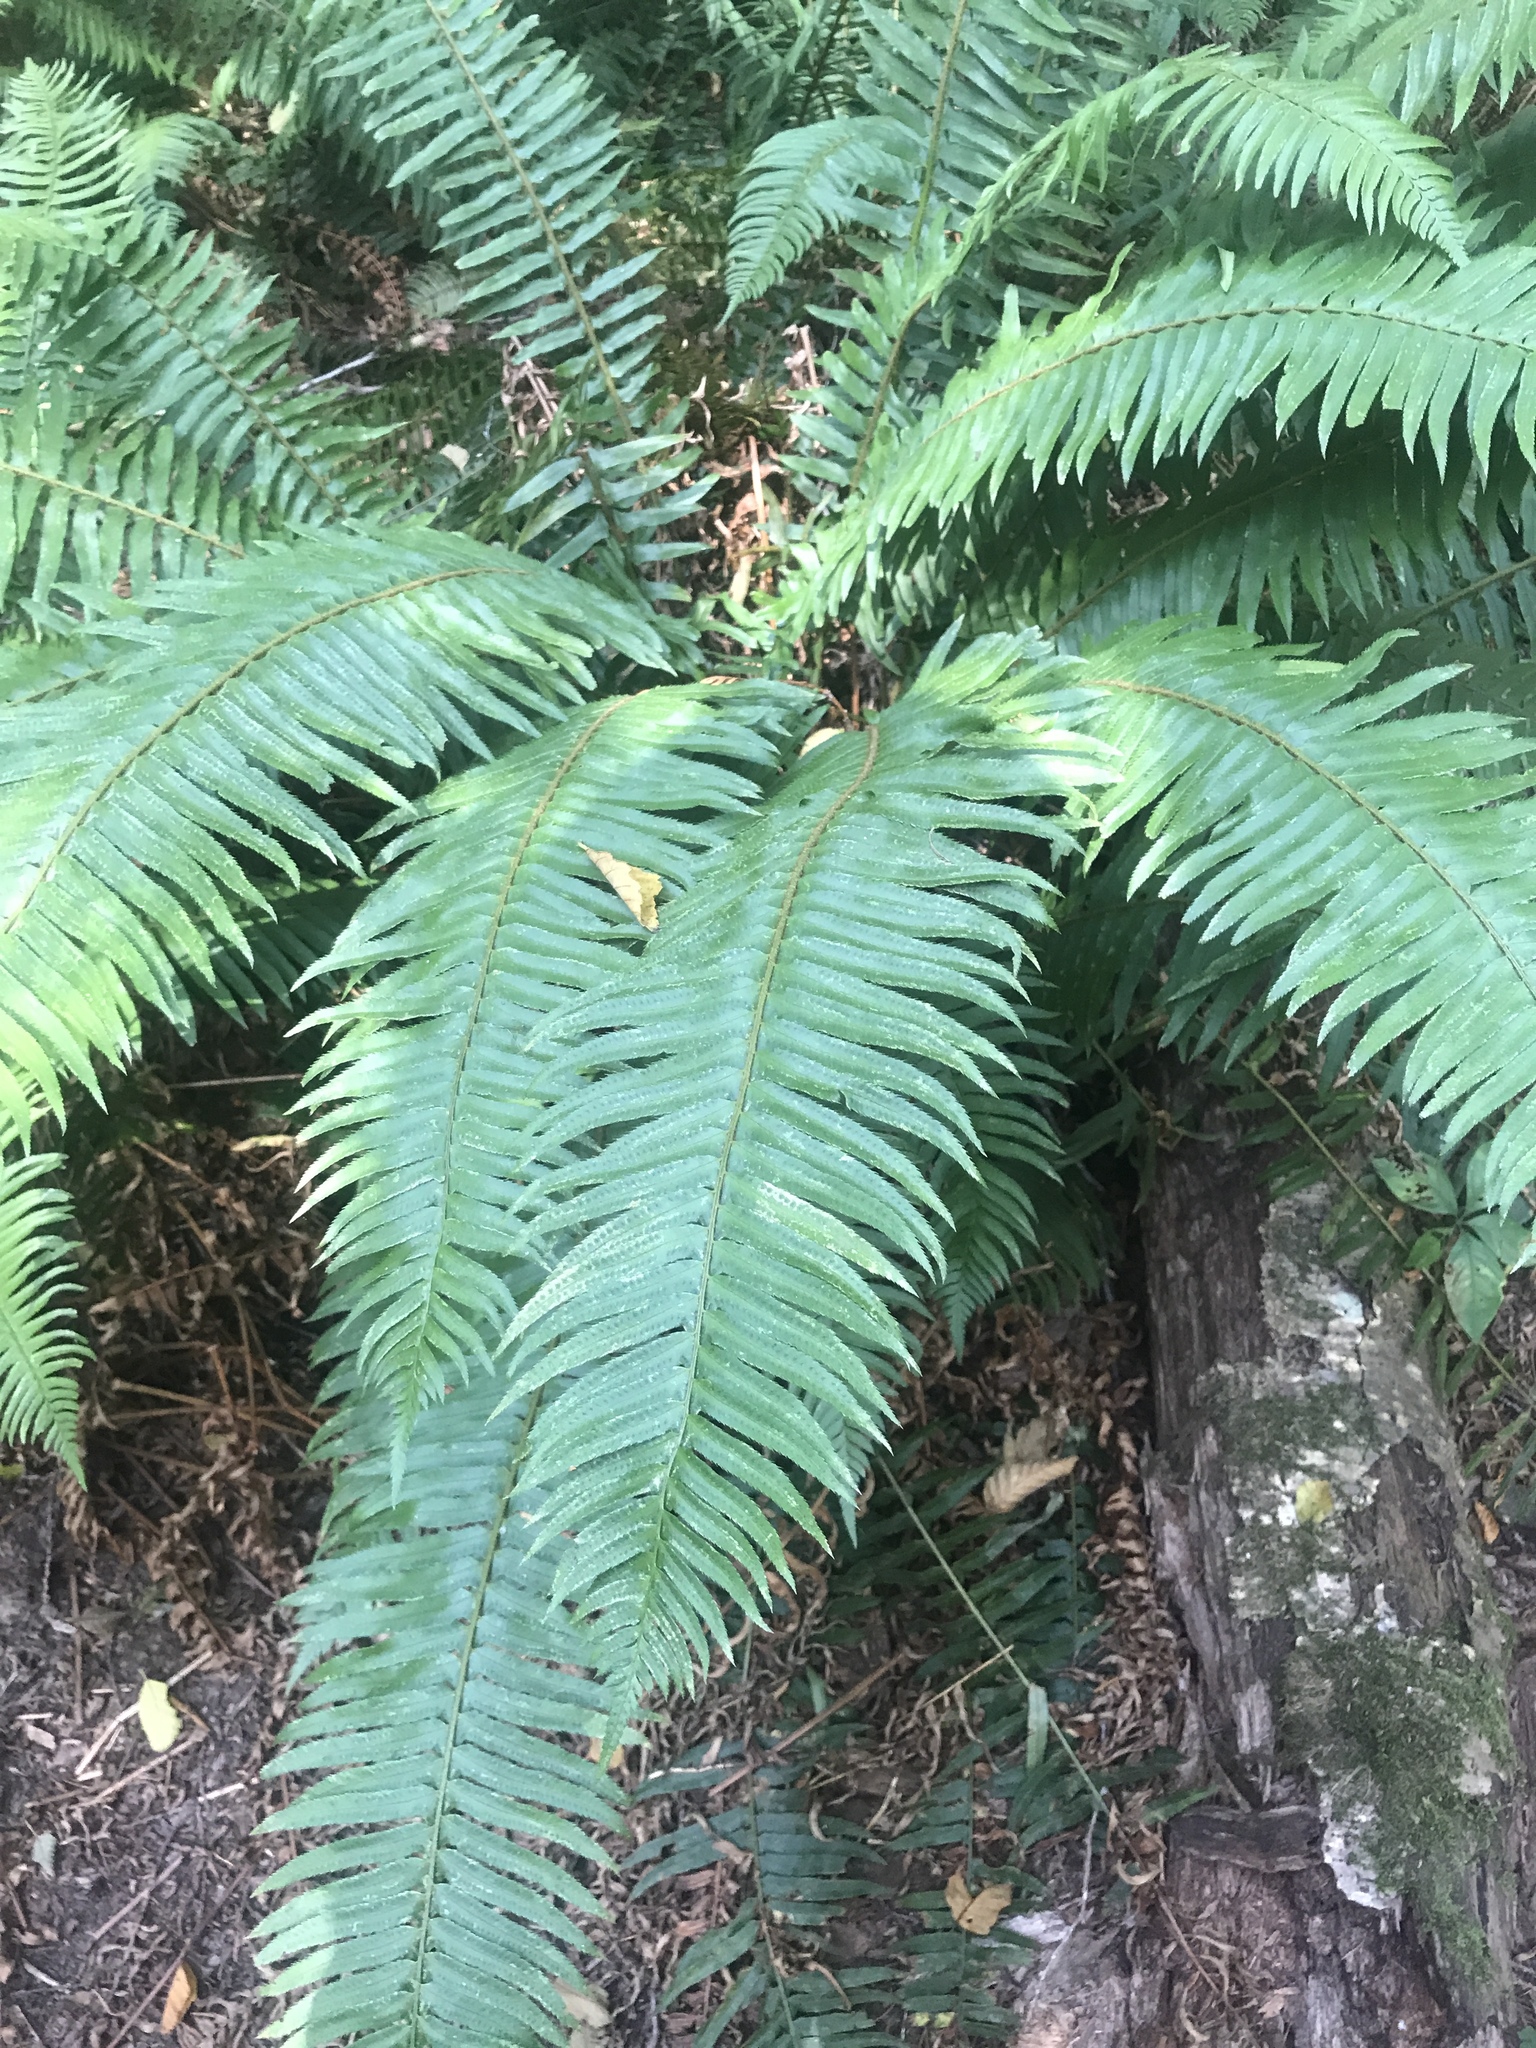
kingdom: Plantae
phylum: Tracheophyta
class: Polypodiopsida
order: Polypodiales
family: Dryopteridaceae
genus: Polystichum
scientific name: Polystichum munitum
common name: Western sword-fern
